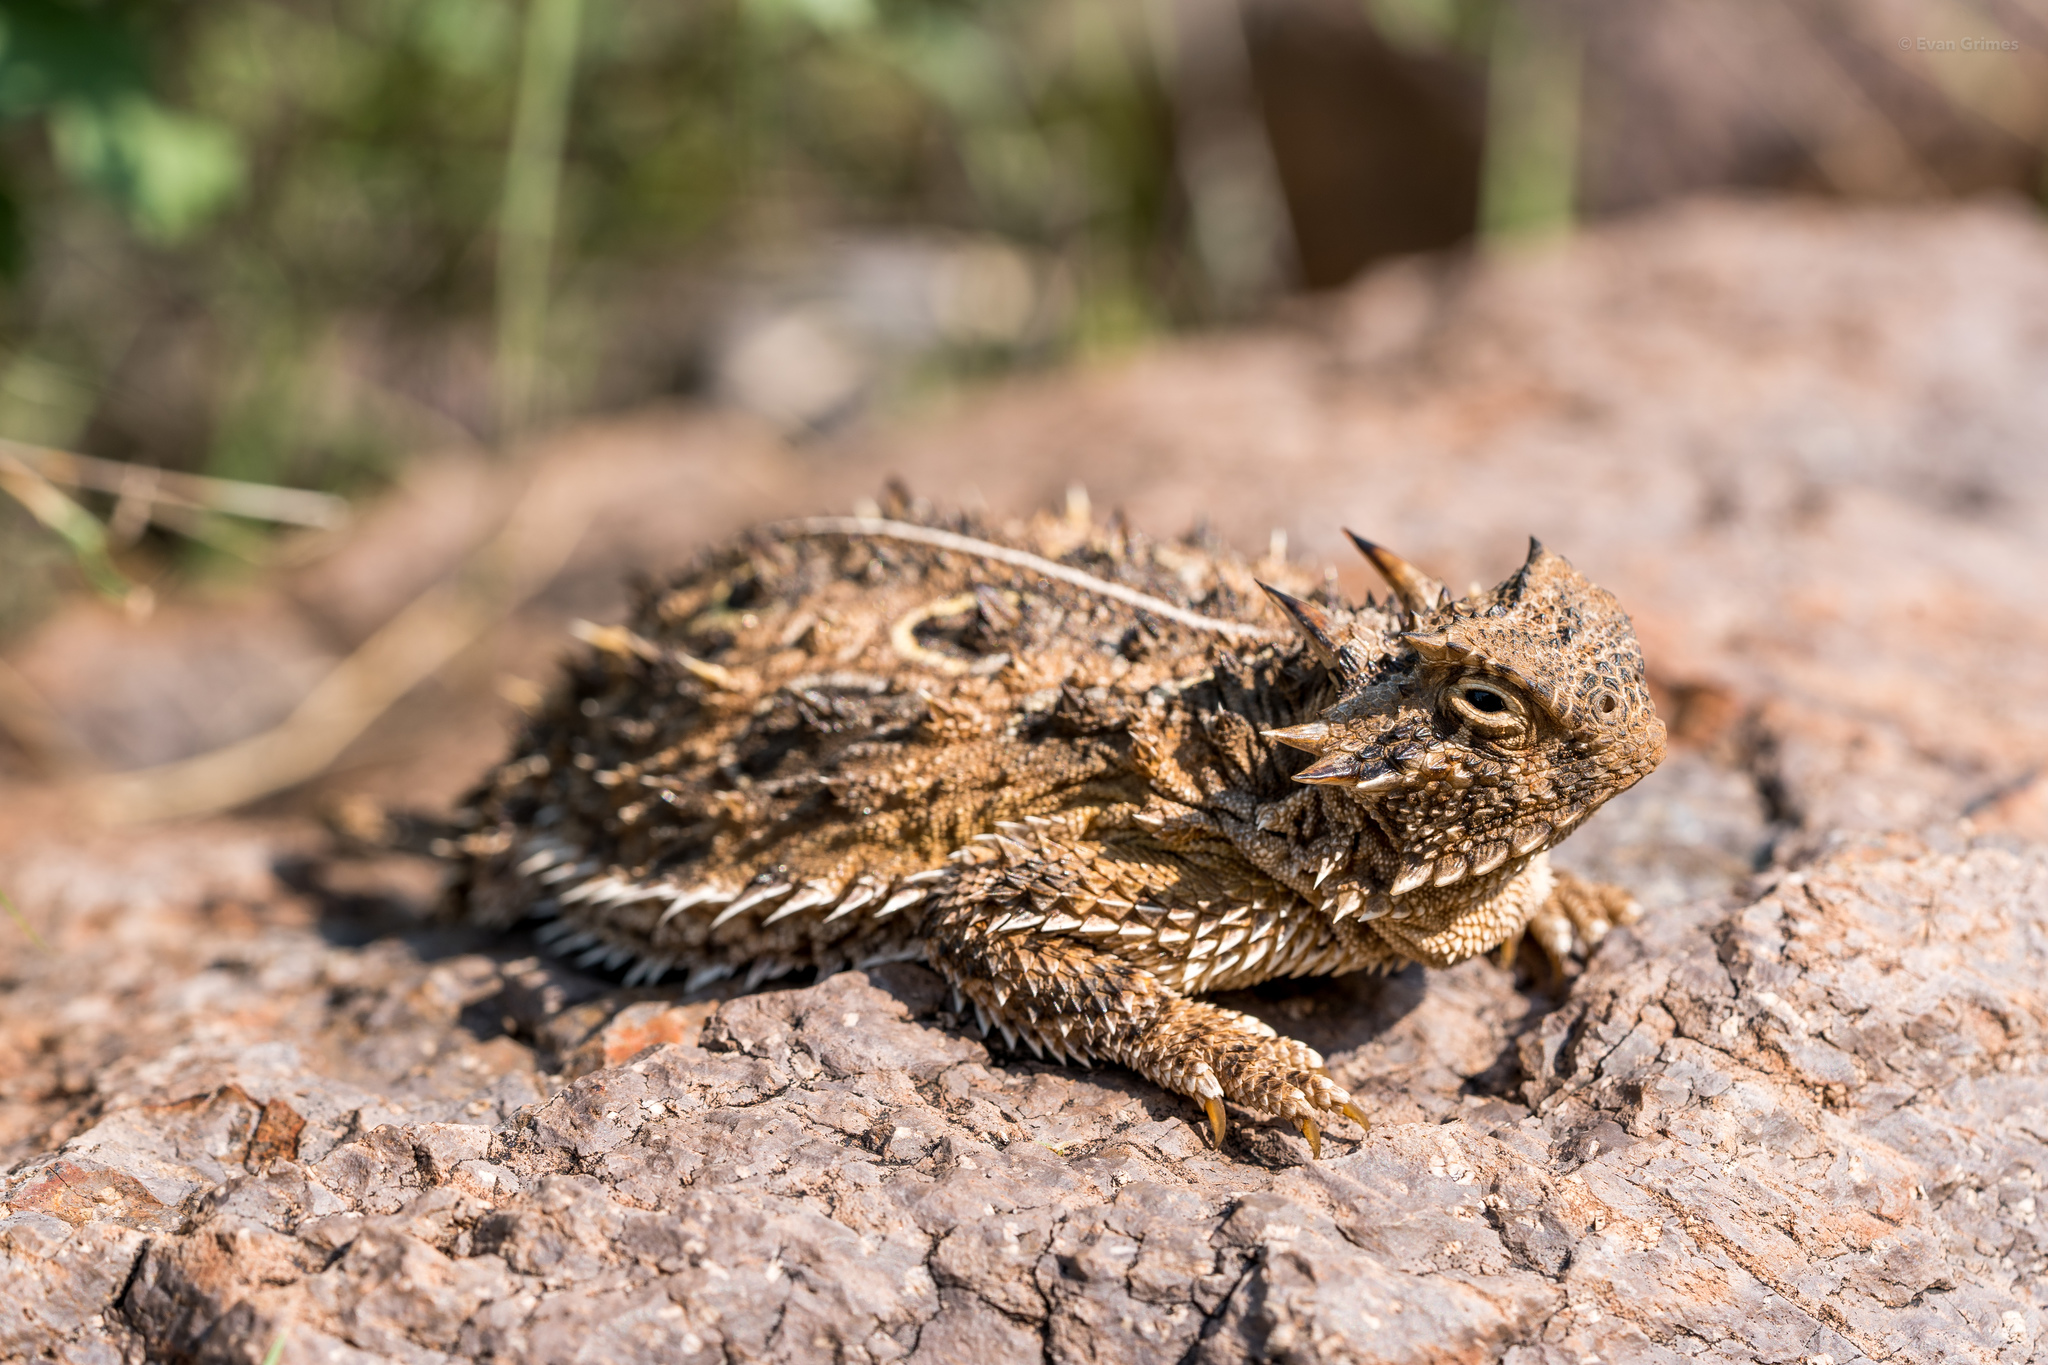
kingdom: Animalia
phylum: Chordata
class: Squamata
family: Phrynosomatidae
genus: Phrynosoma
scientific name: Phrynosoma cornutum
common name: Texas horned lizard
